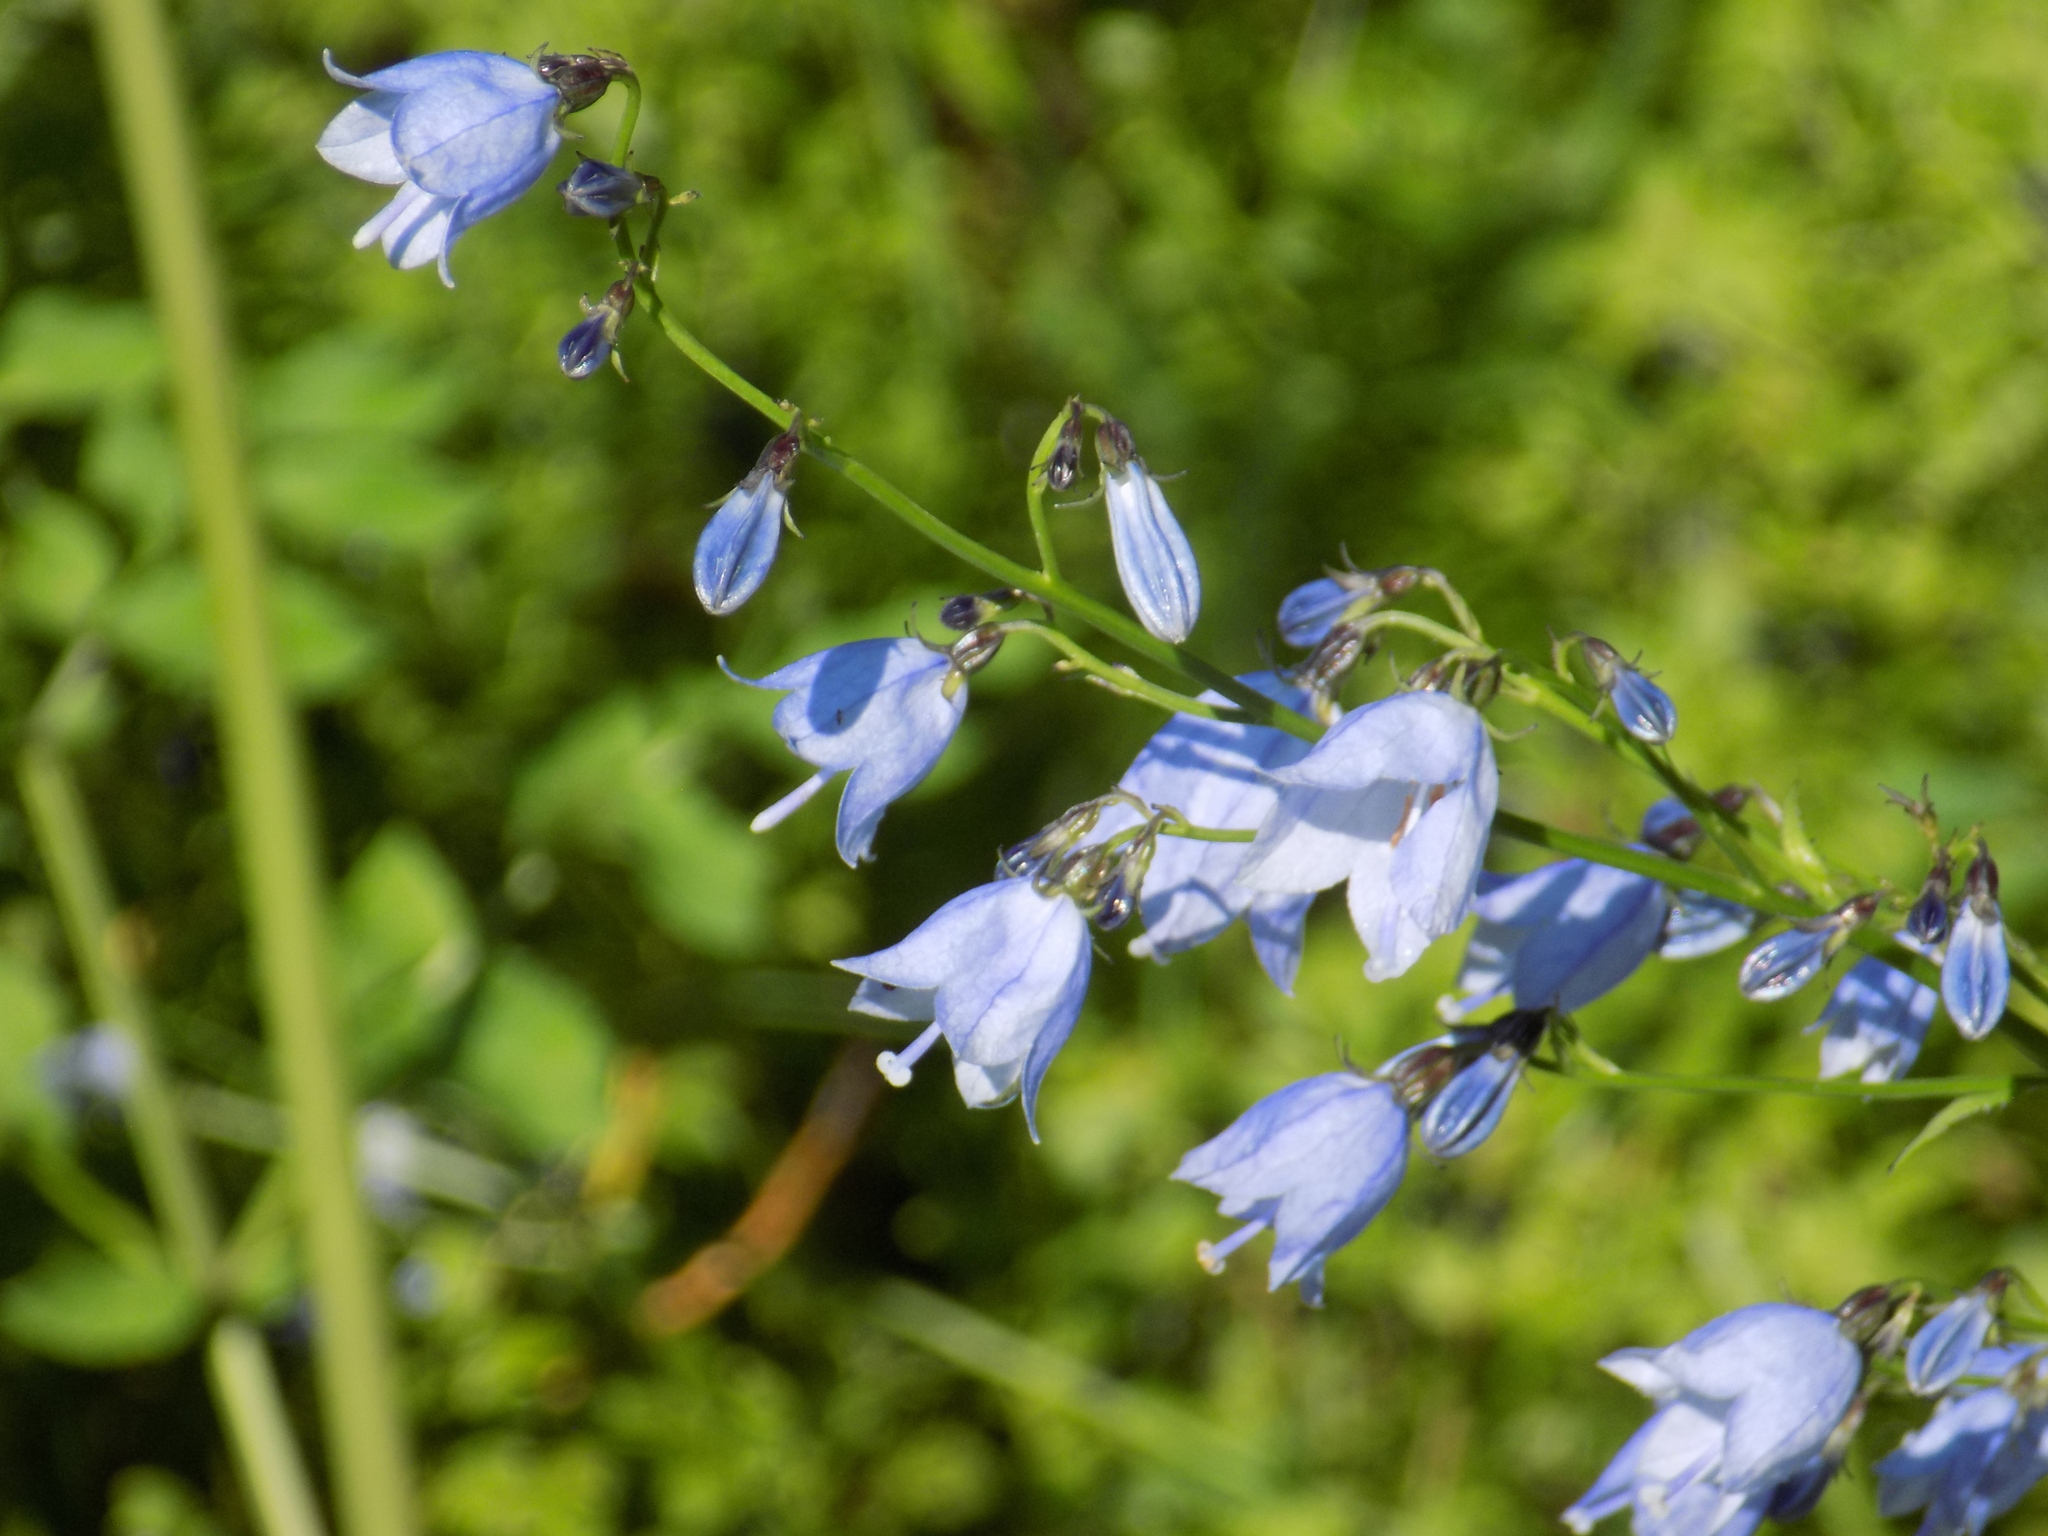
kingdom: Plantae
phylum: Tracheophyta
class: Magnoliopsida
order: Asterales
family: Campanulaceae
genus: Adenophora
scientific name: Adenophora liliifolia
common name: Lilyleaf ladybells
